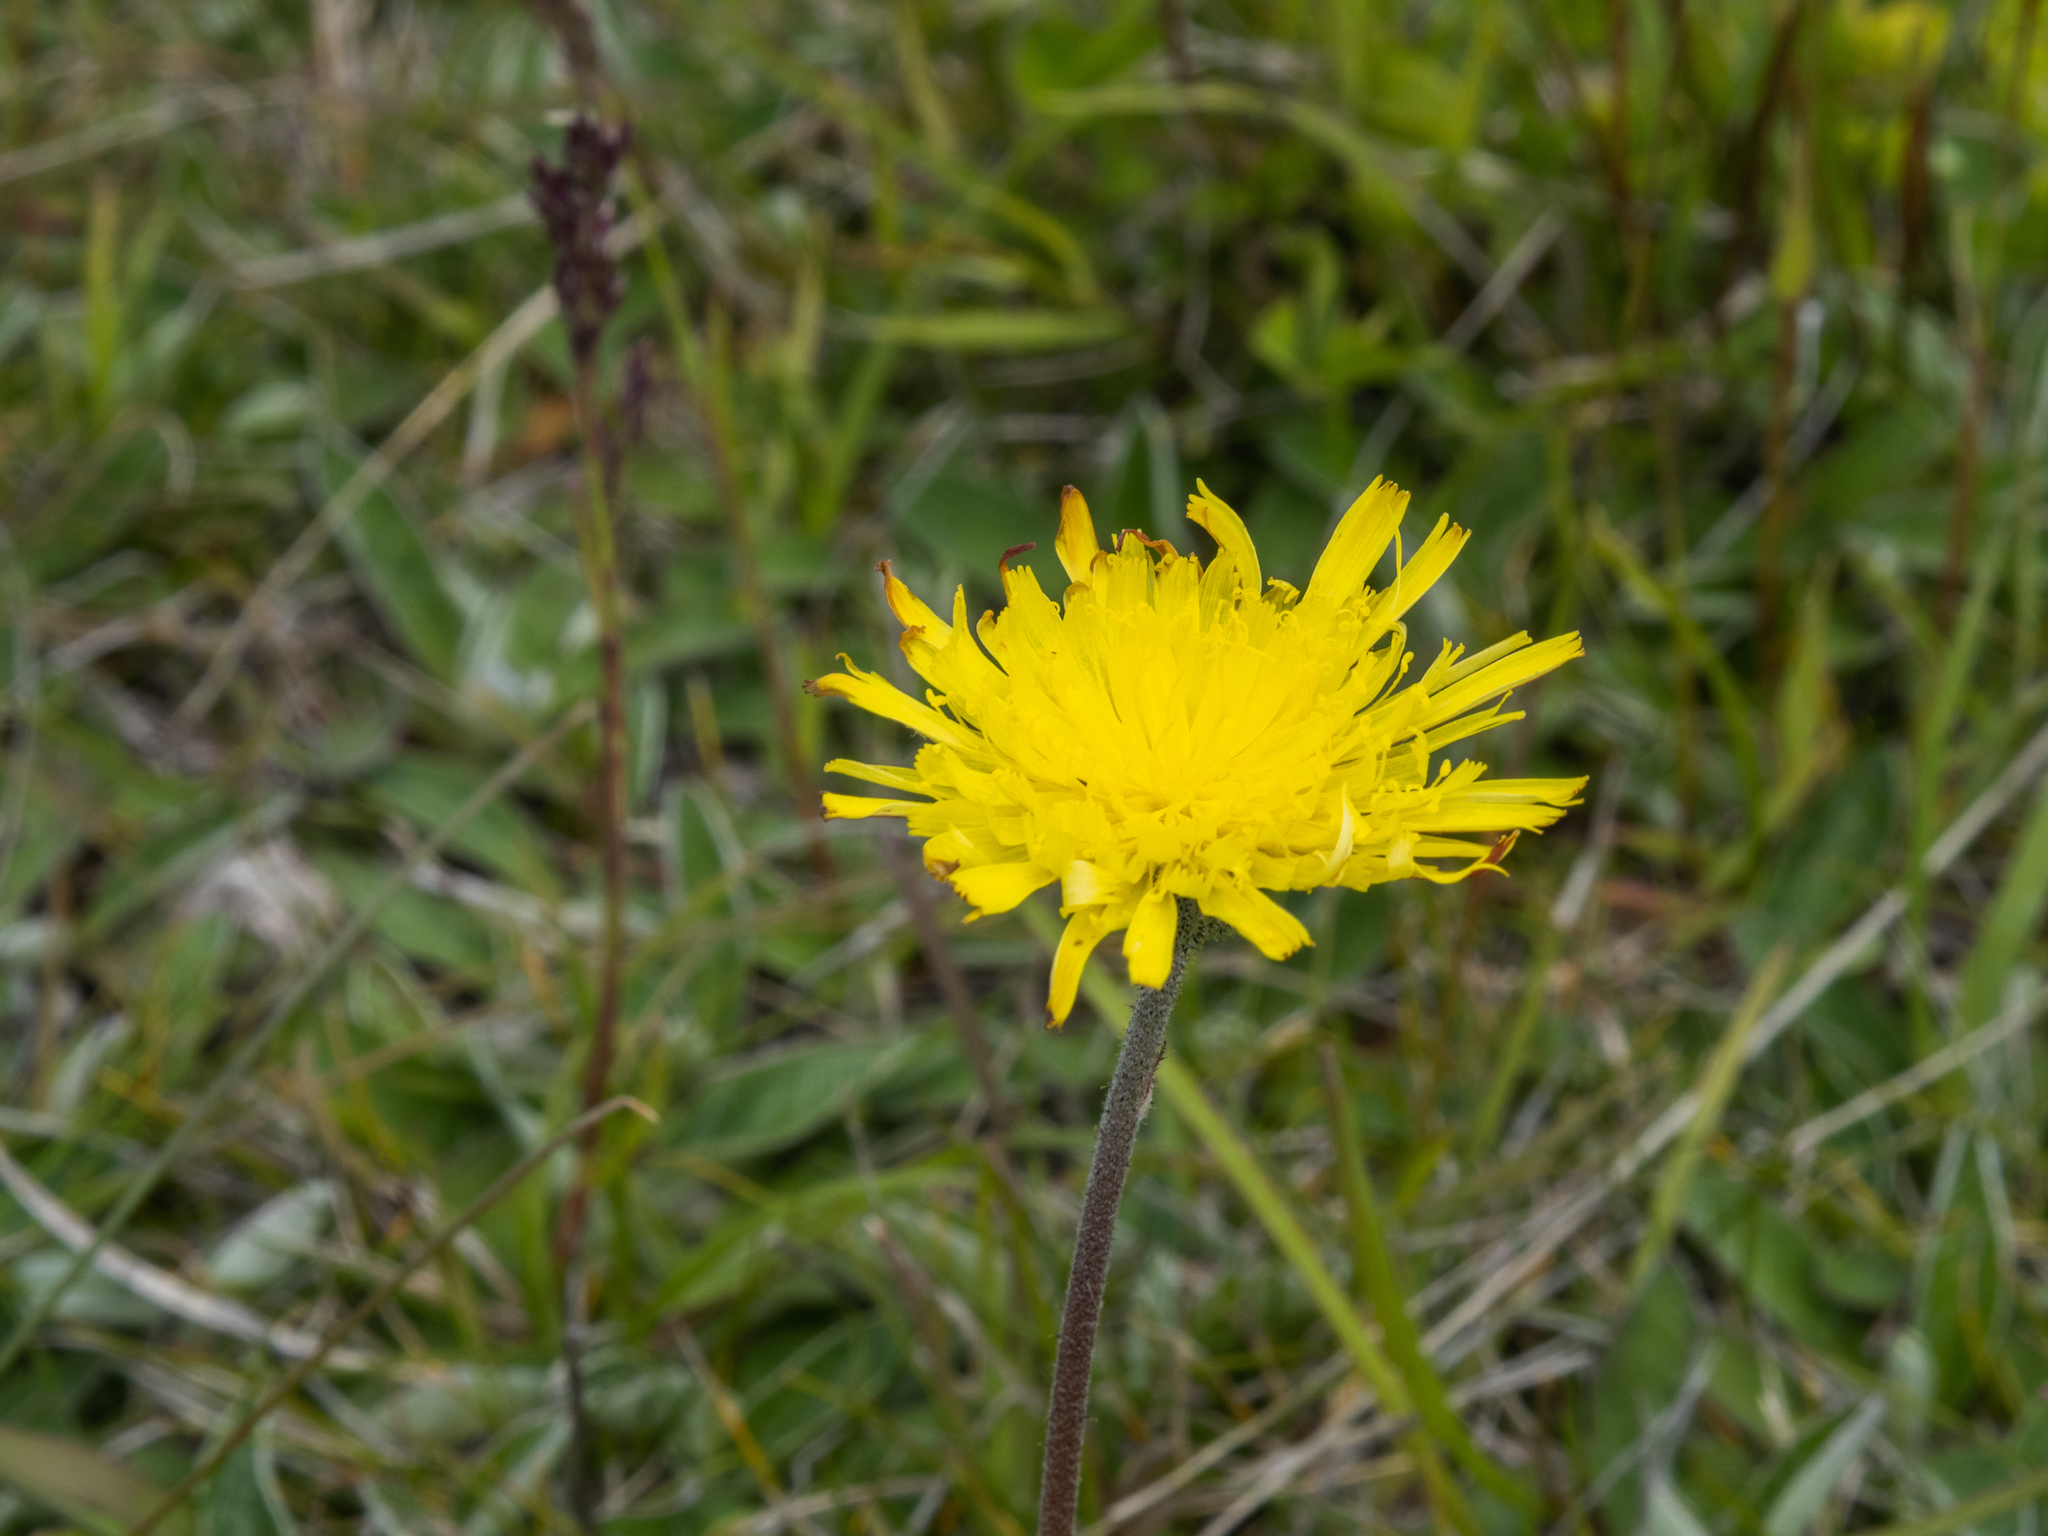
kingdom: Plantae
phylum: Tracheophyta
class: Magnoliopsida
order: Asterales
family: Asteraceae
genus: Pilosella
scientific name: Pilosella officinarum
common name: Mouse-ear hawkweed
